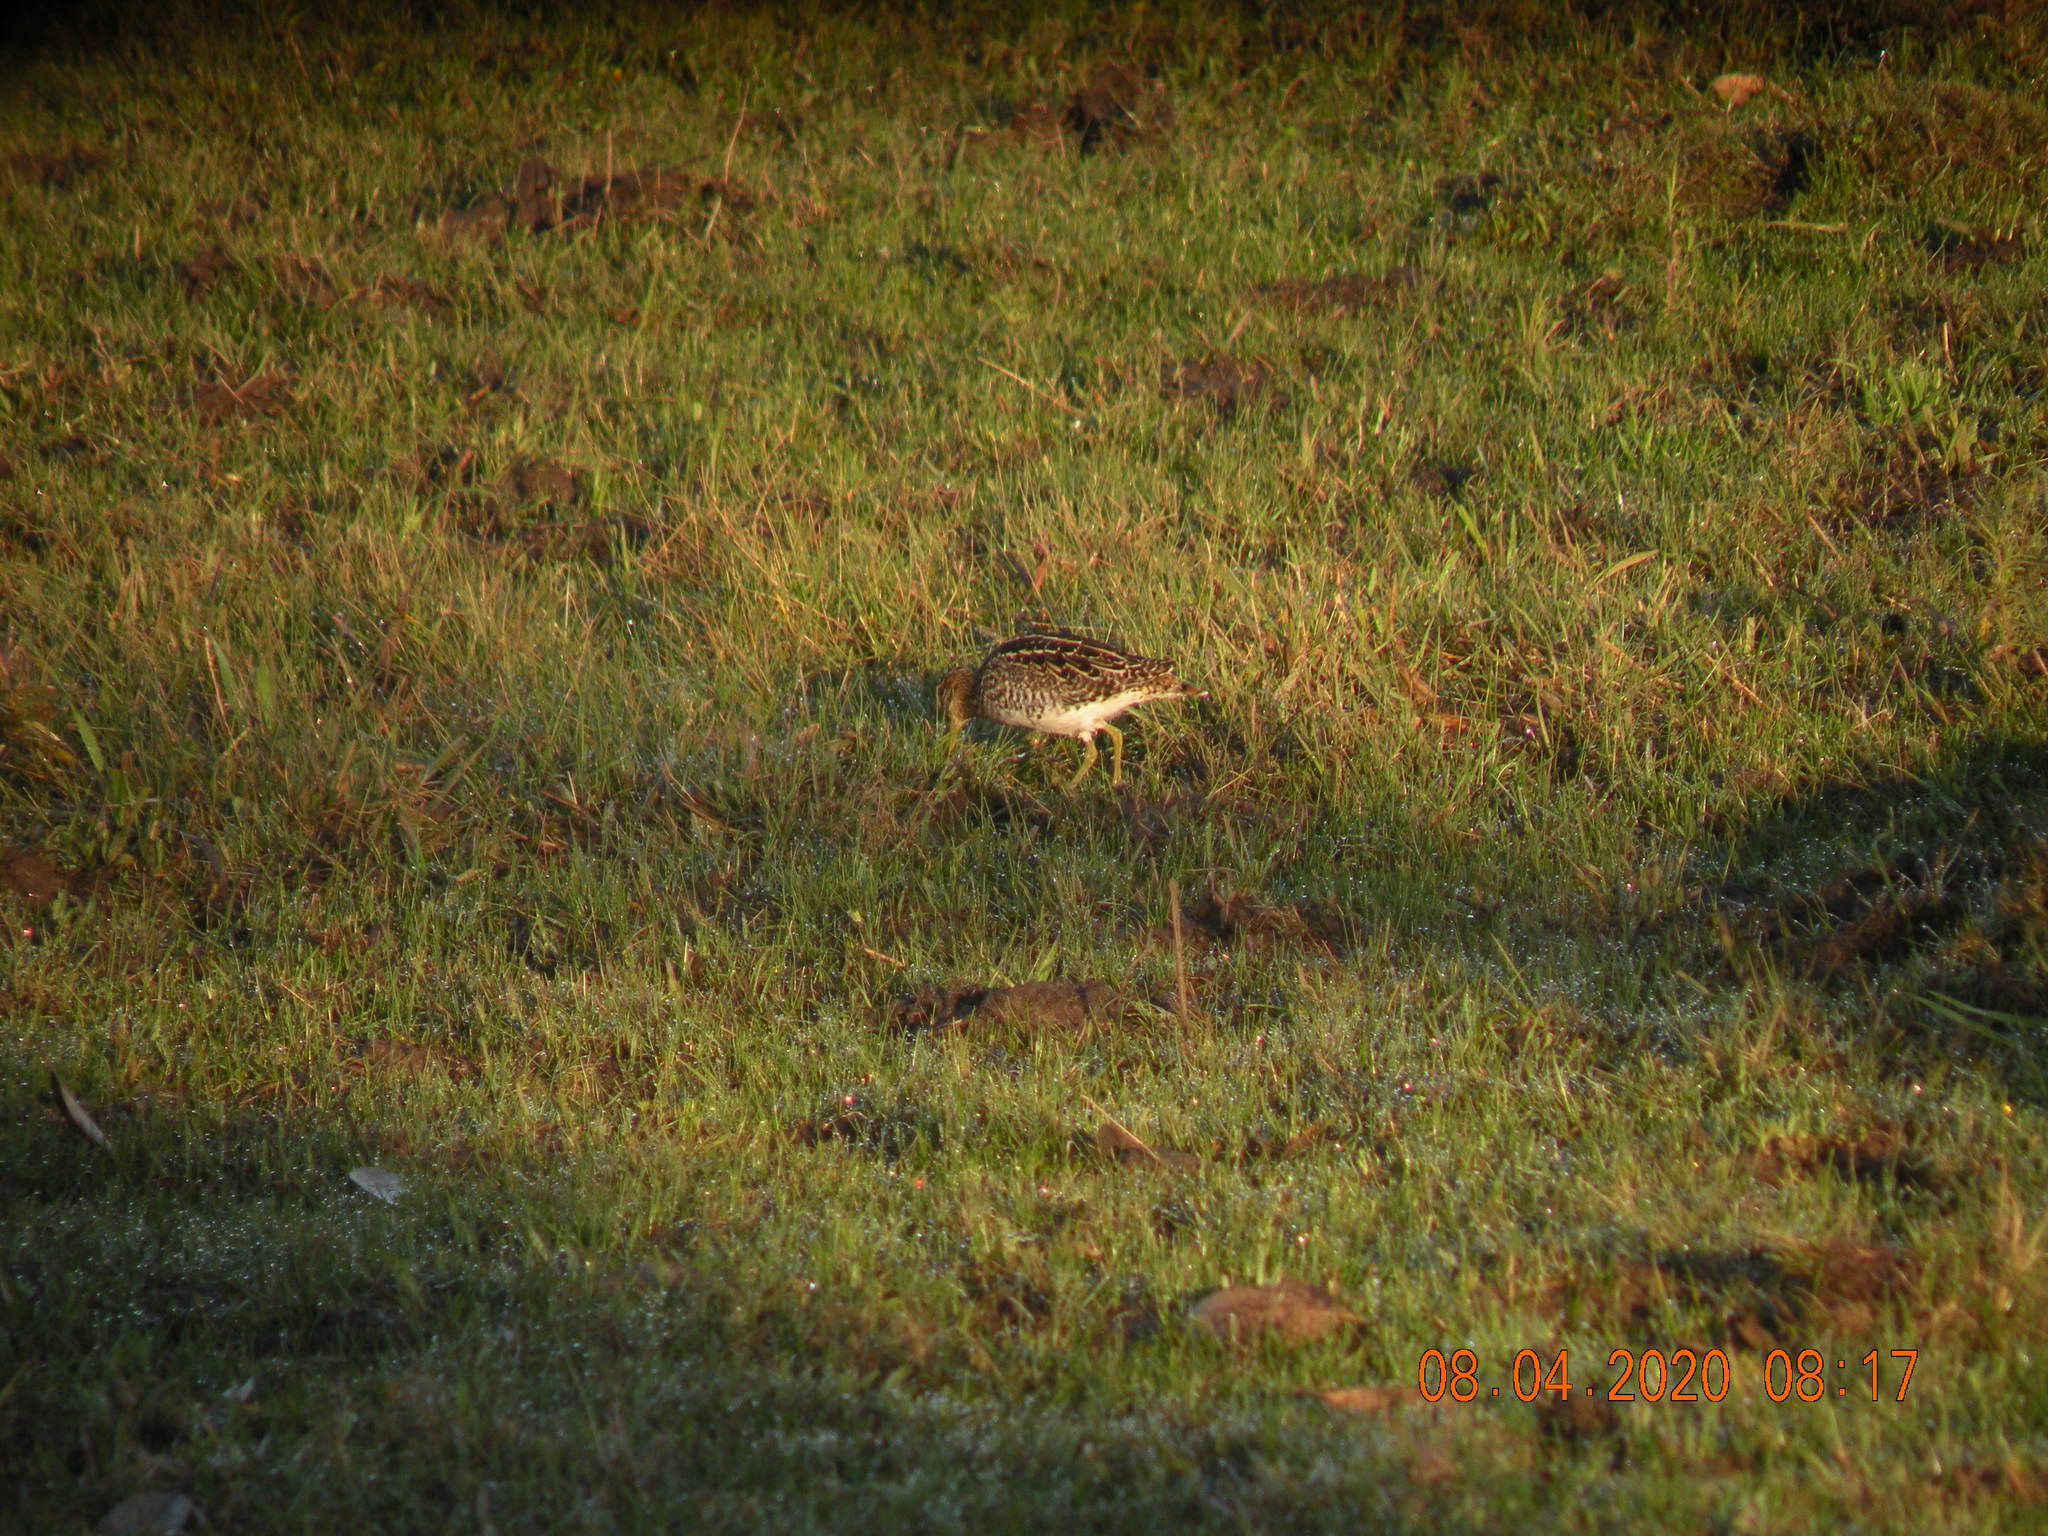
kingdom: Animalia
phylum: Chordata
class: Aves
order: Charadriiformes
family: Scolopacidae
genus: Gallinago
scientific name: Gallinago paraguaiae
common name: South american snipe
